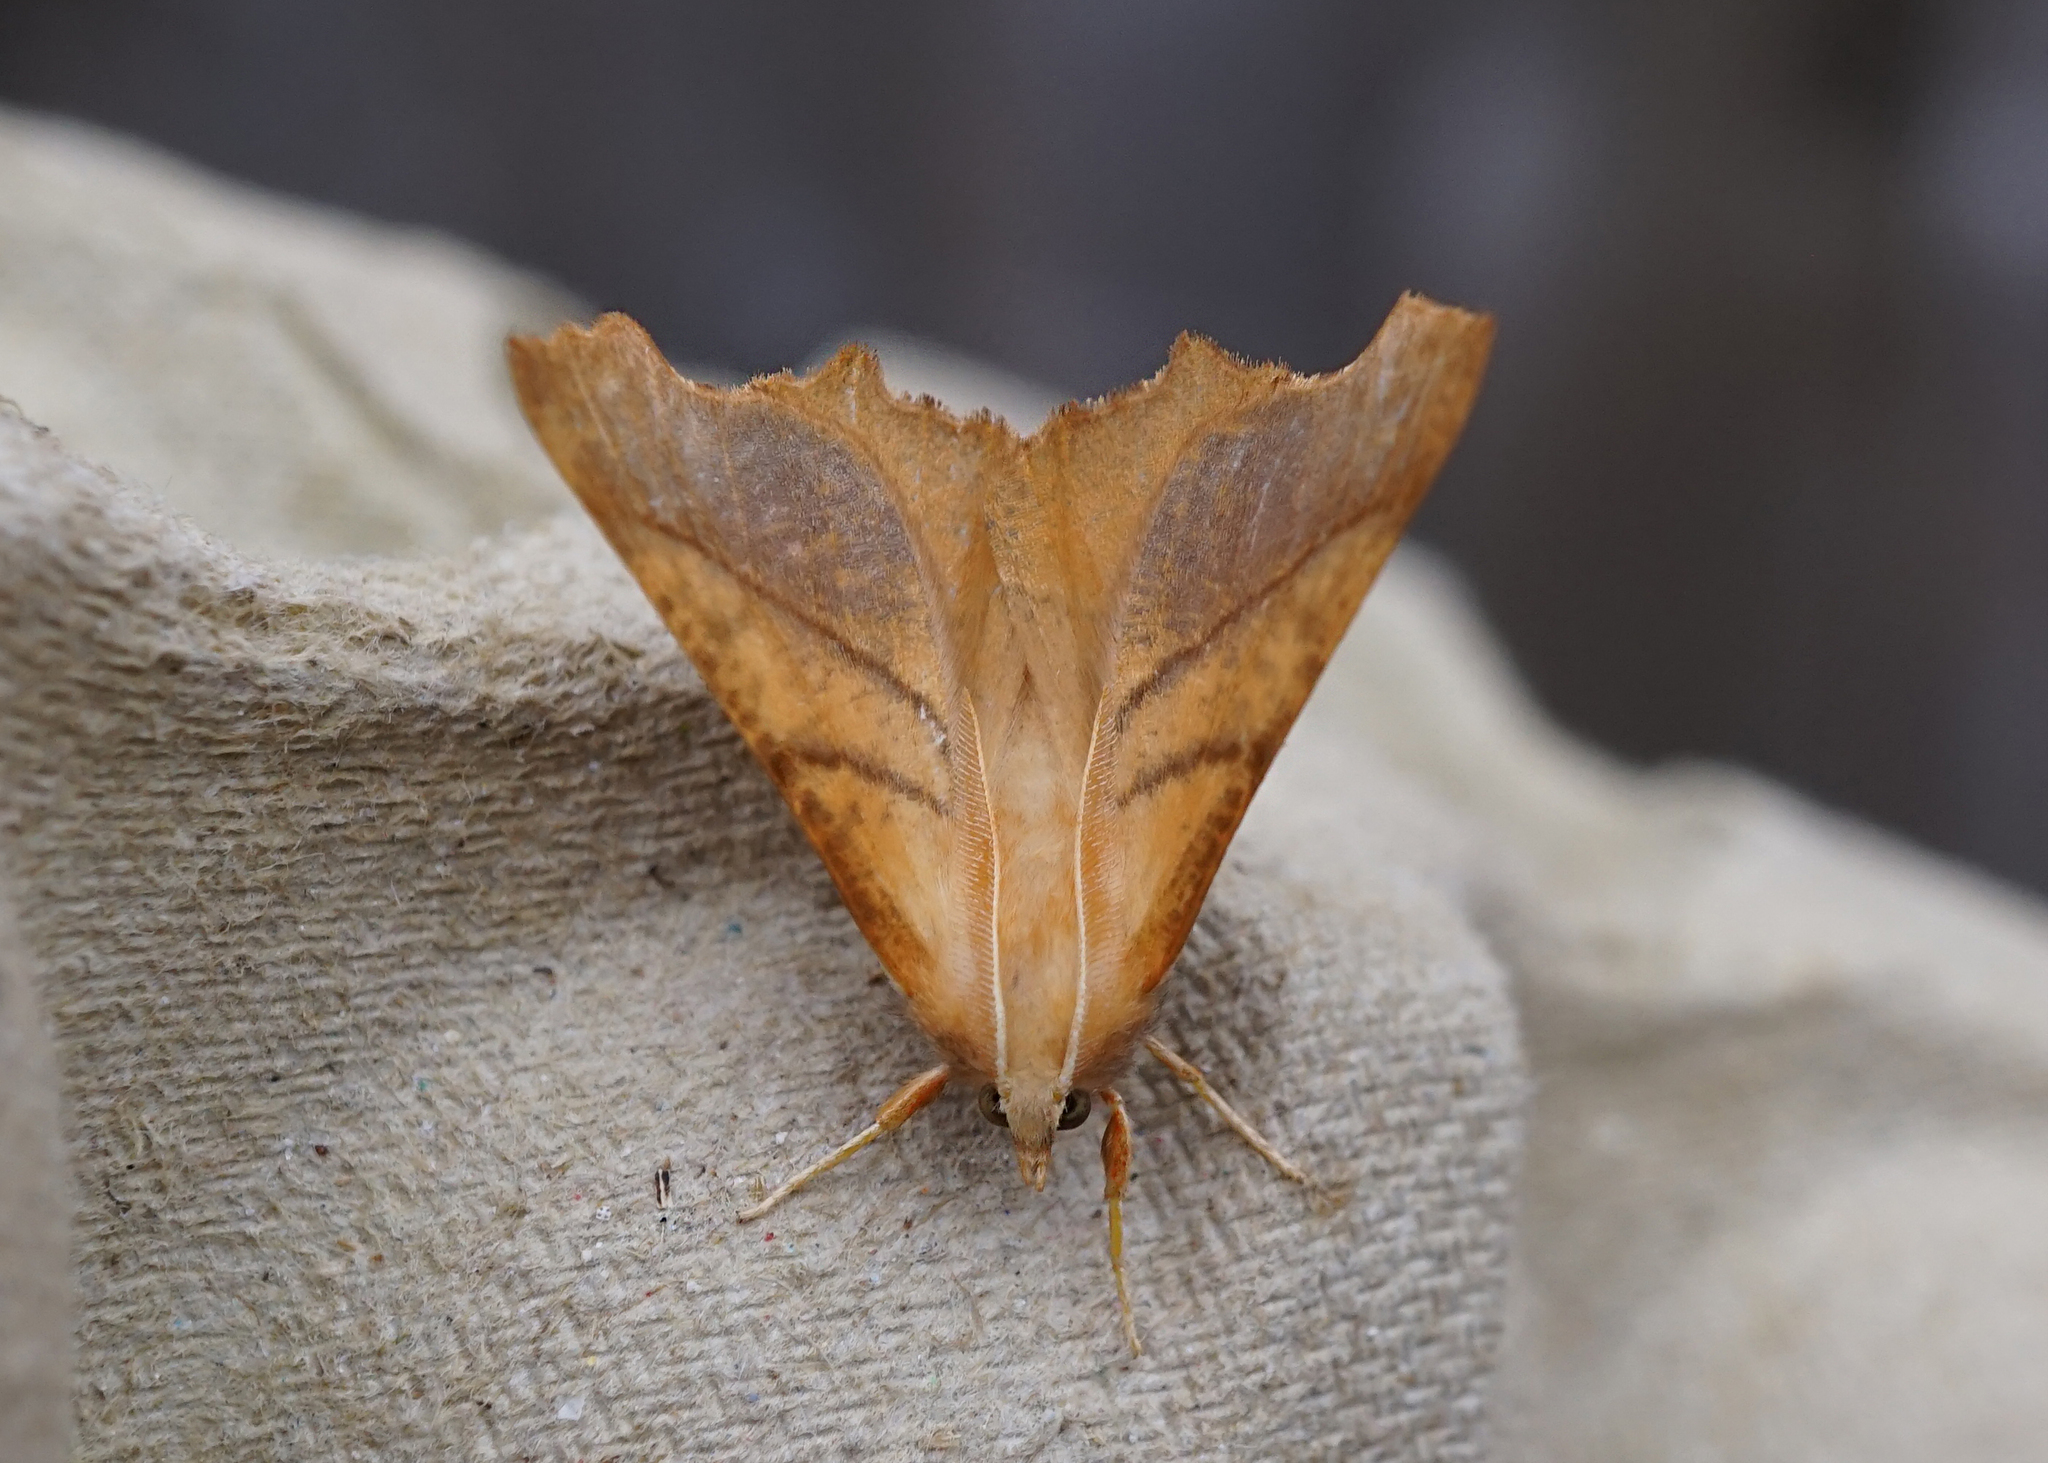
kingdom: Animalia
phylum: Arthropoda
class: Insecta
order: Lepidoptera
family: Geometridae
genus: Ennomos
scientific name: Ennomos fuscantaria
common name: Dusky thorn
